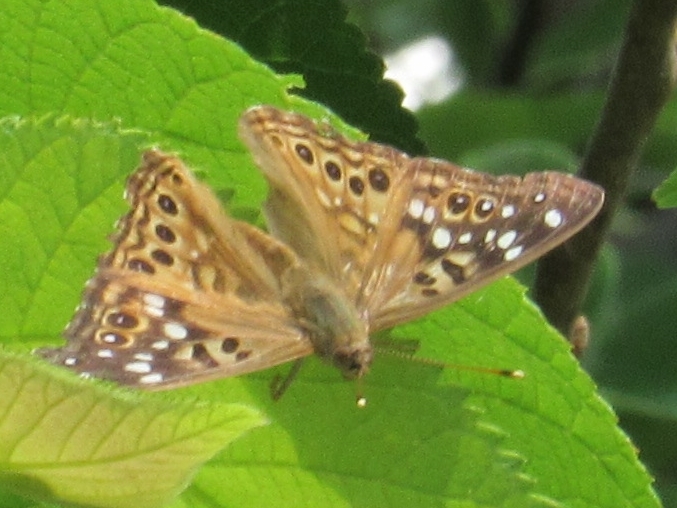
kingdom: Animalia
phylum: Arthropoda
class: Insecta
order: Lepidoptera
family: Nymphalidae
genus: Asterocampa
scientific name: Asterocampa celtis
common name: Hackberry emperor
